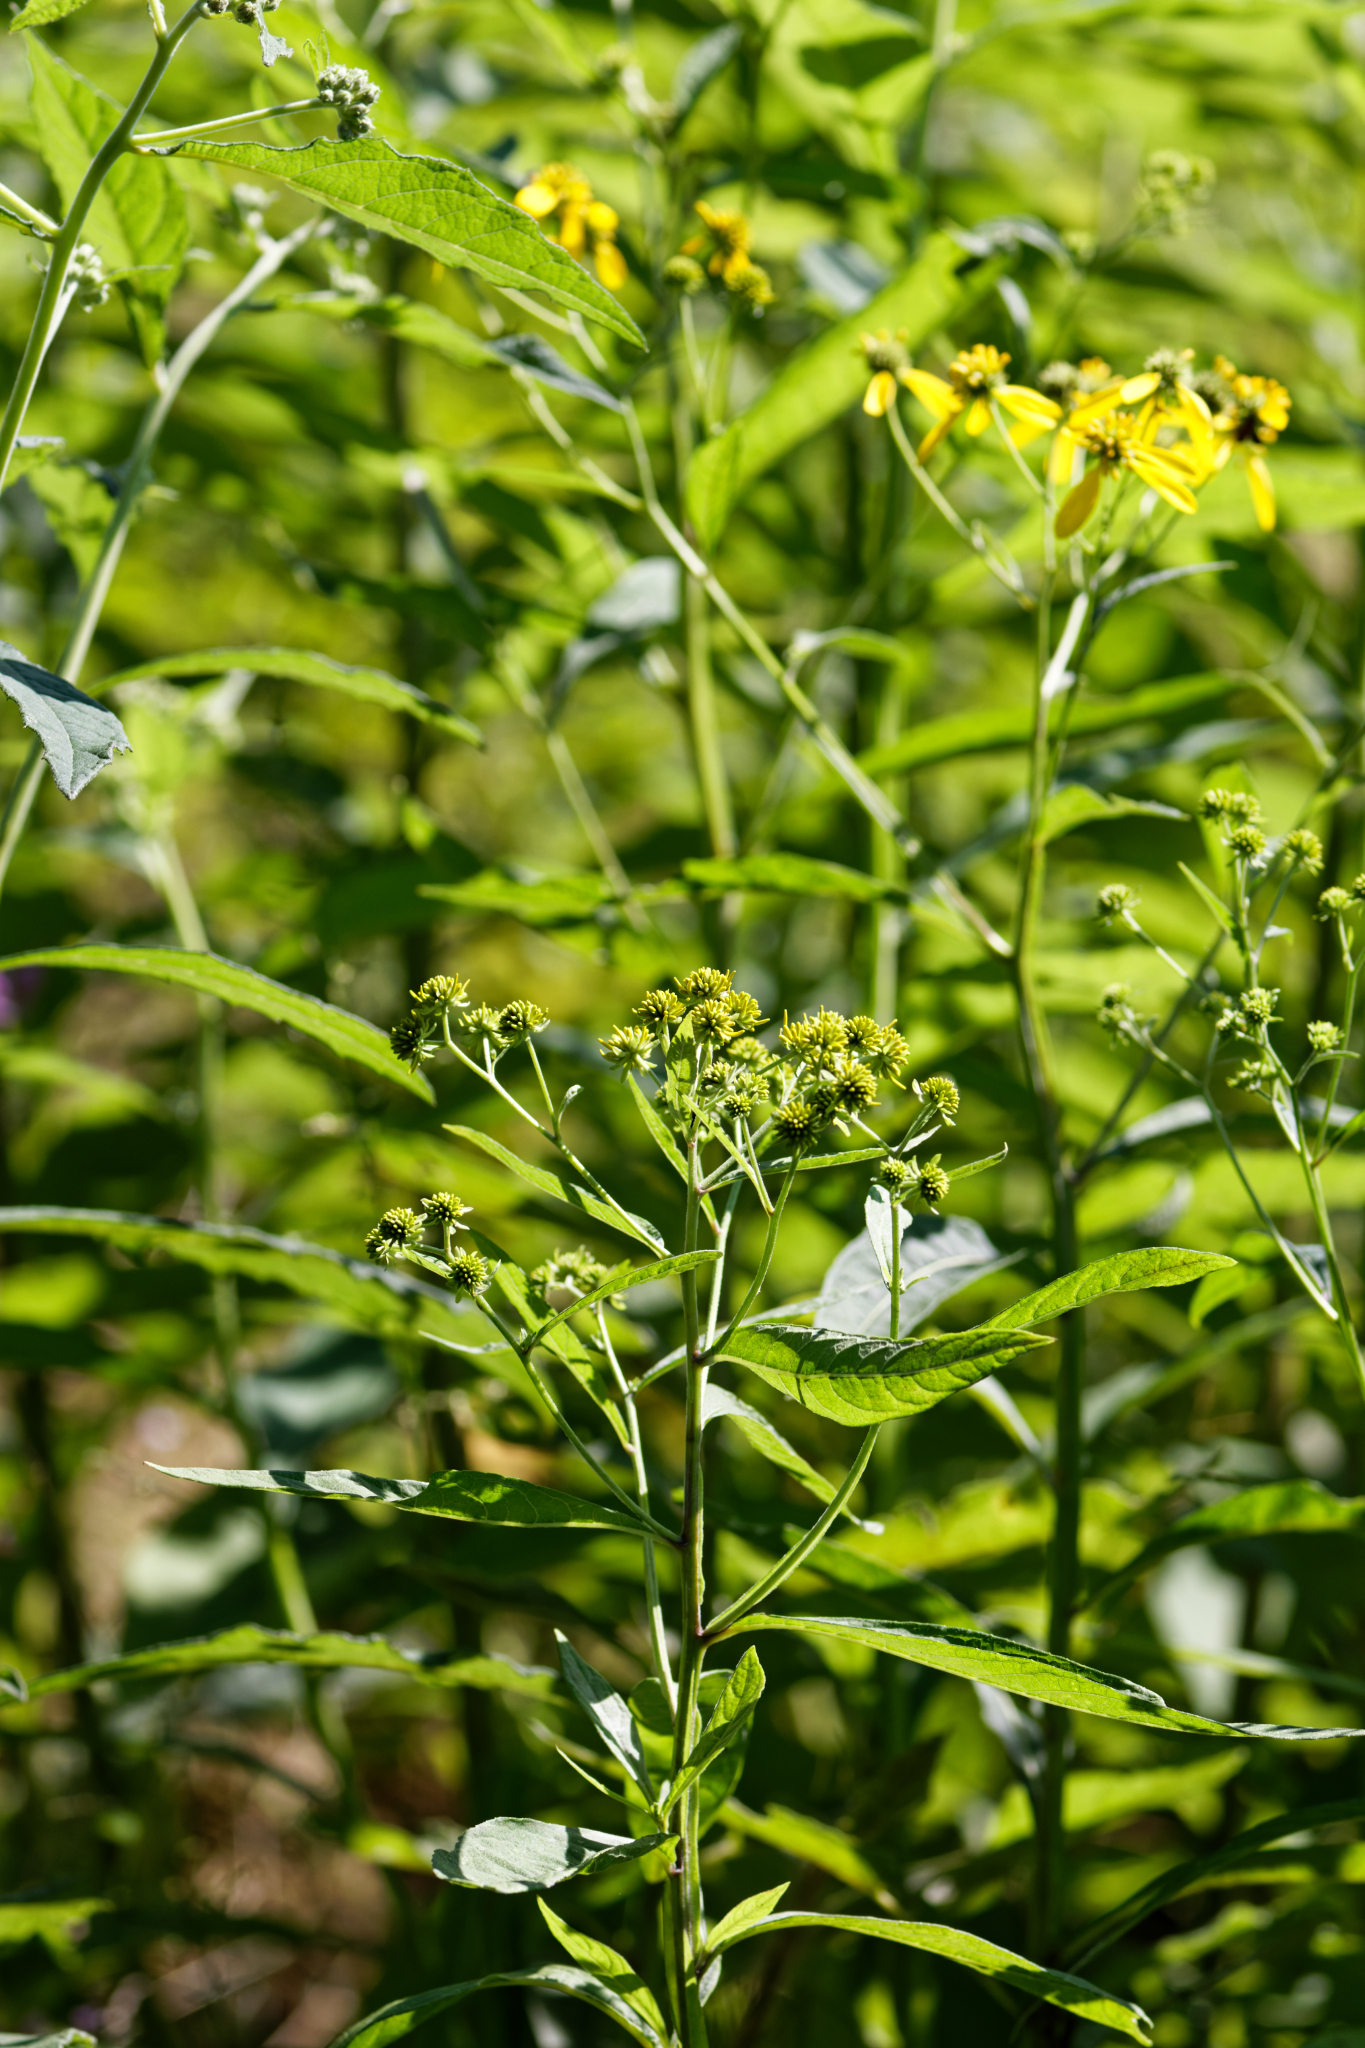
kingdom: Plantae
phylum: Tracheophyta
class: Magnoliopsida
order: Asterales
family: Asteraceae
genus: Verbesina
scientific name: Verbesina alternifolia
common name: Wingstem
